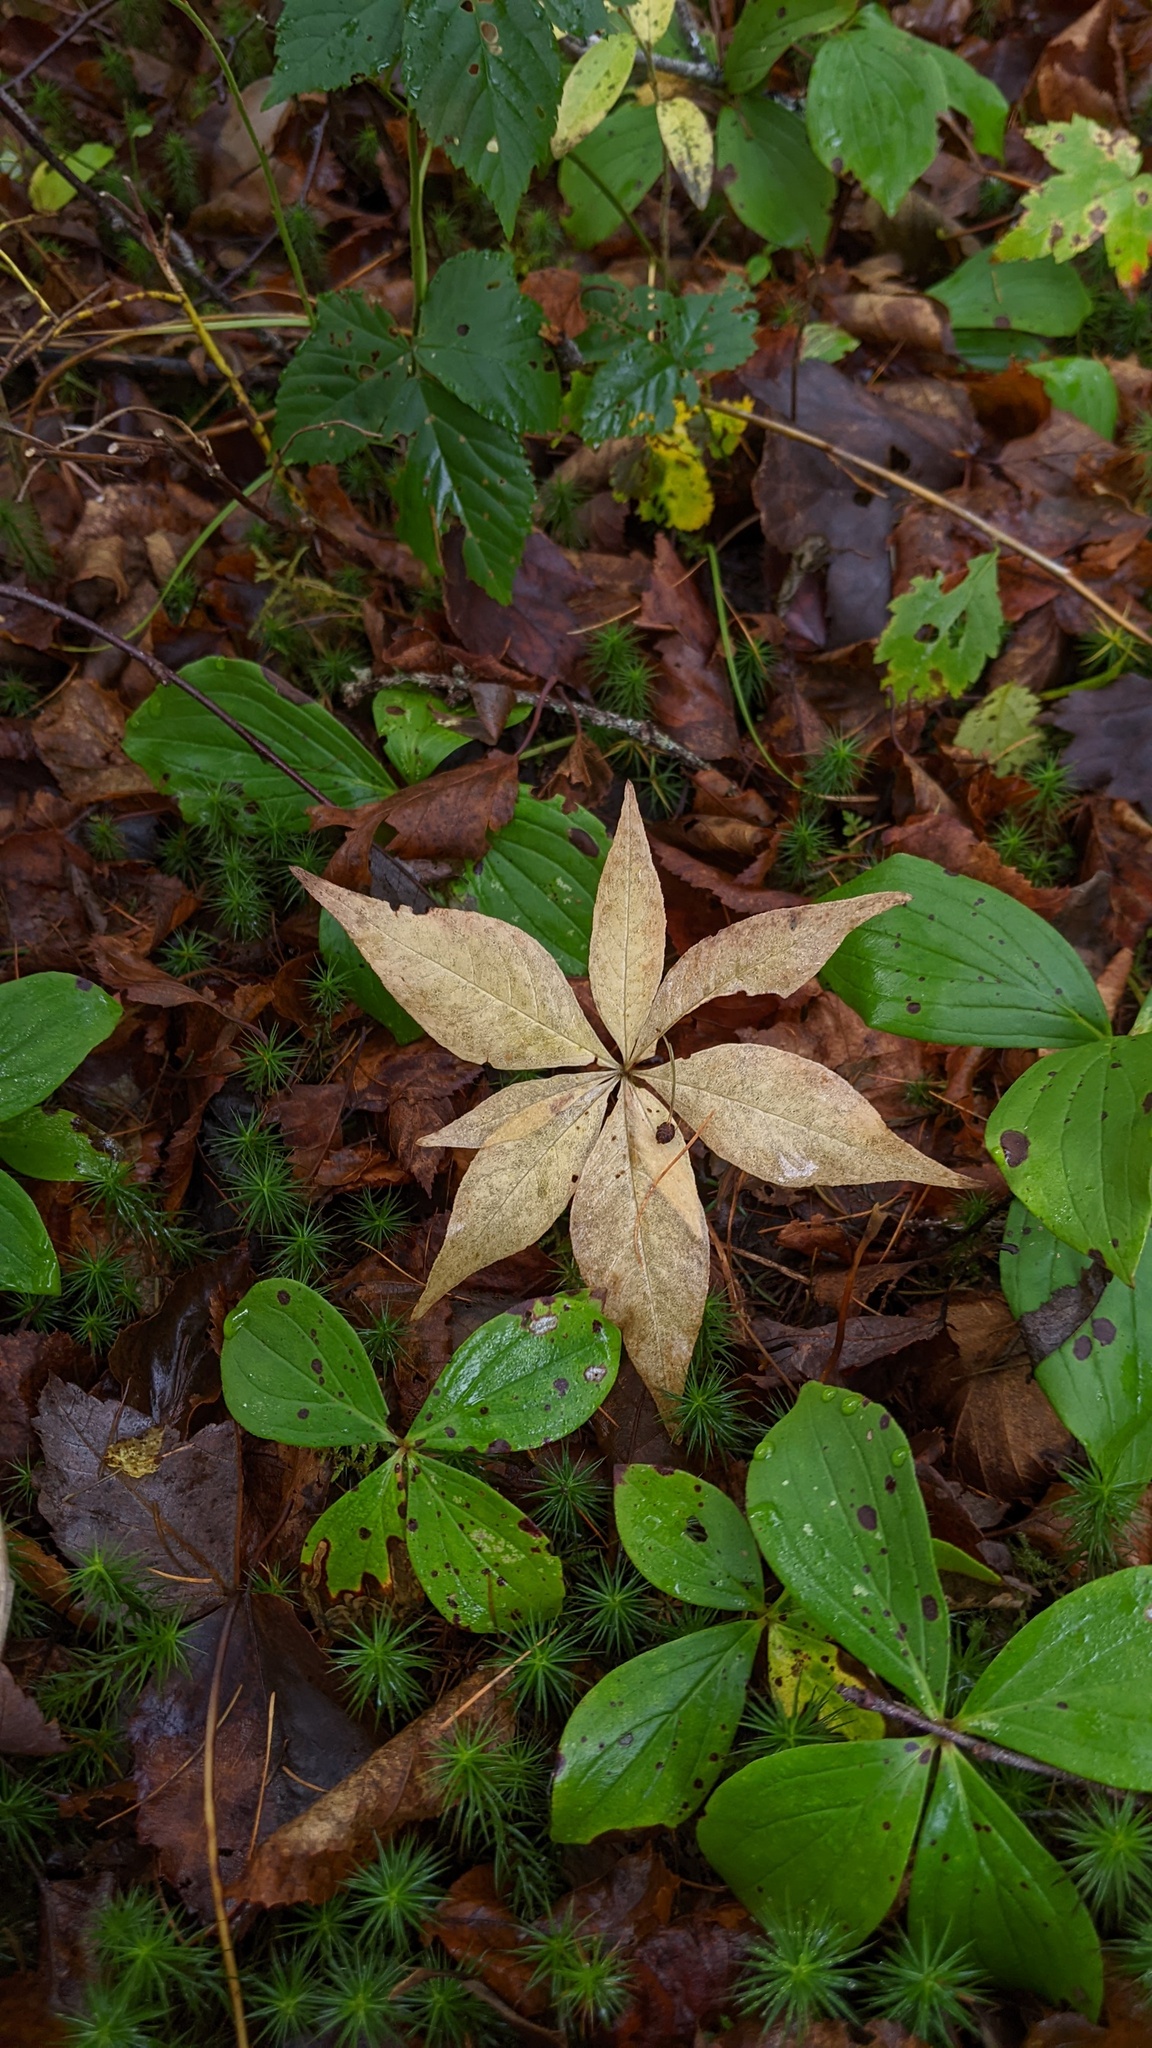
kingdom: Plantae
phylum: Tracheophyta
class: Magnoliopsida
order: Ericales
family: Primulaceae
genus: Lysimachia
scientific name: Lysimachia borealis
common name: American starflower
